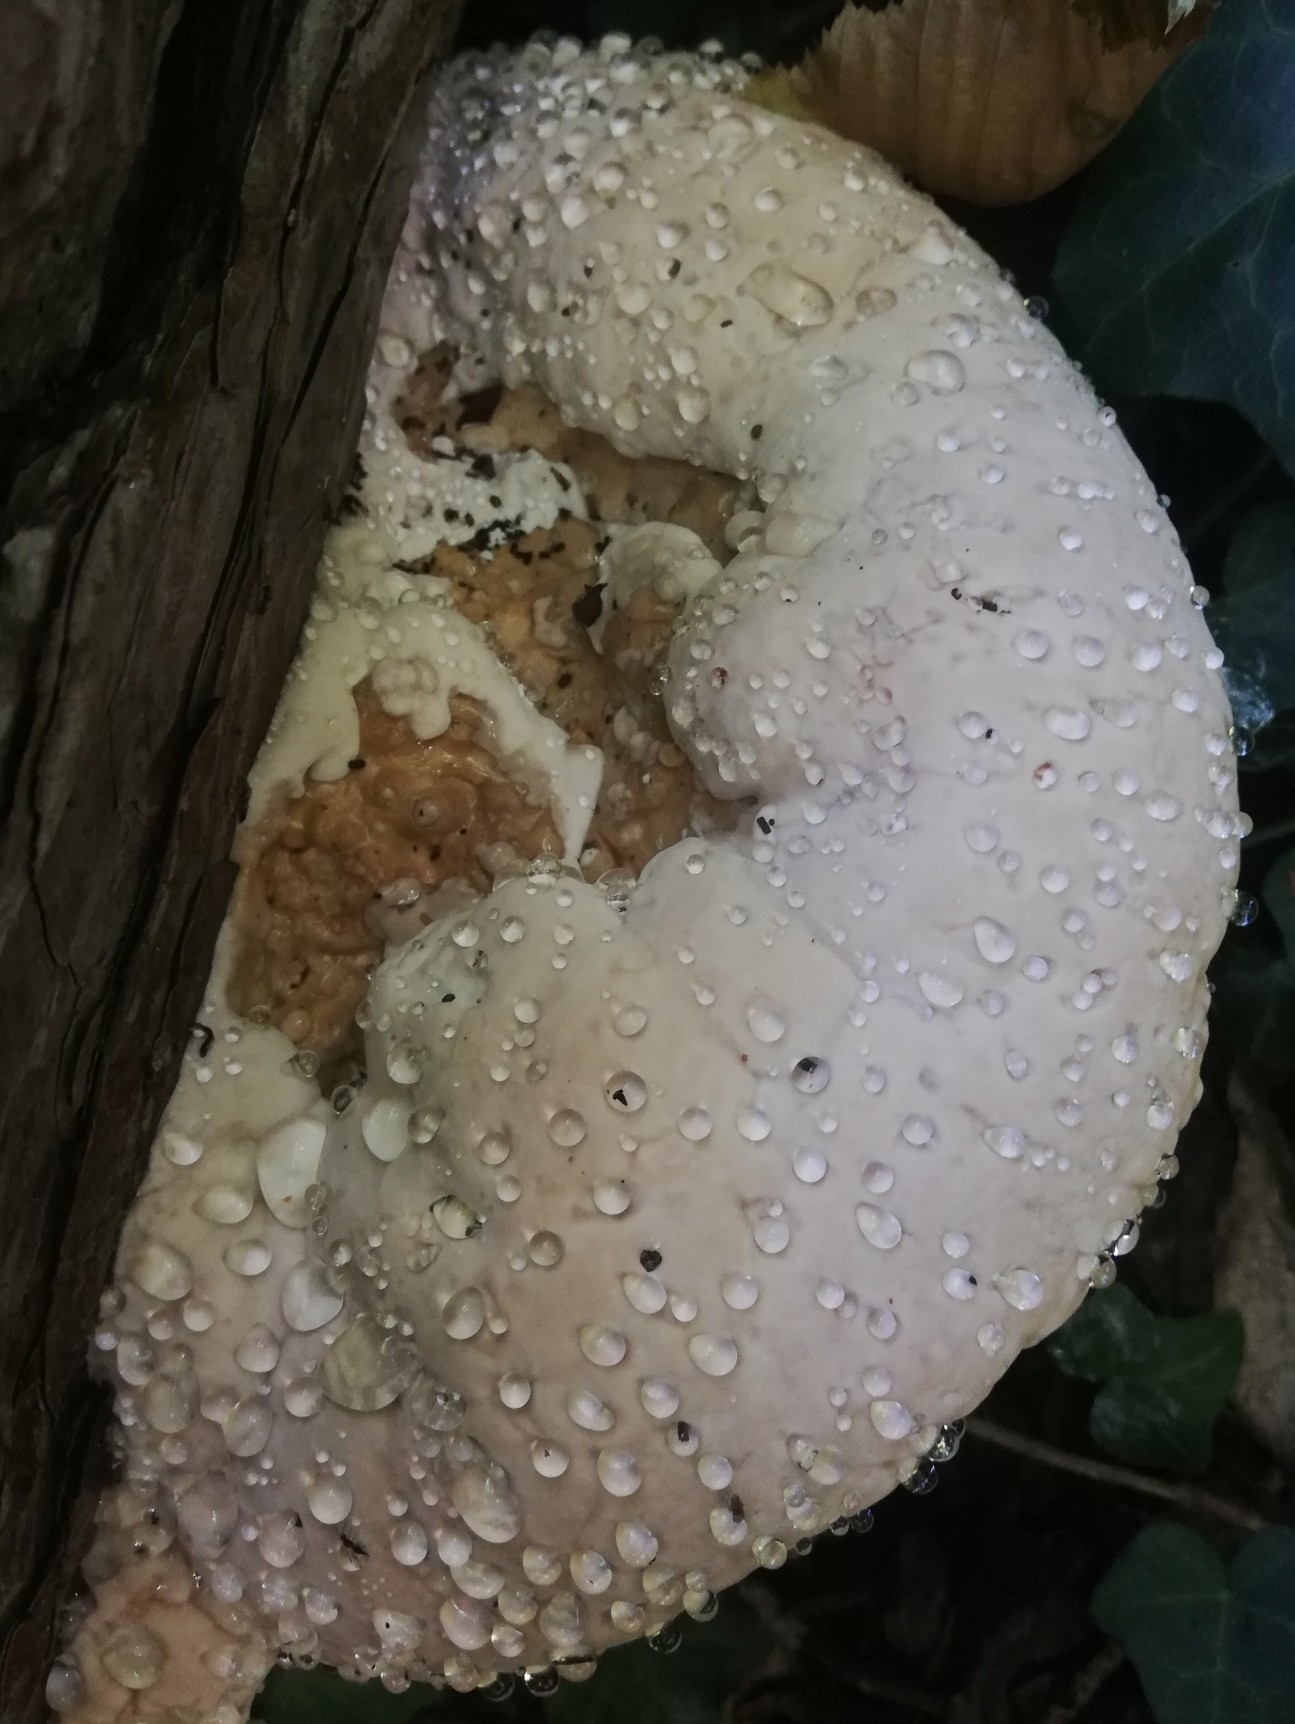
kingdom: Fungi
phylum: Basidiomycota
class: Agaricomycetes
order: Polyporales
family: Fomitopsidaceae
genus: Fomitopsis
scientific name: Fomitopsis pinicola
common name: Red-belted bracket
